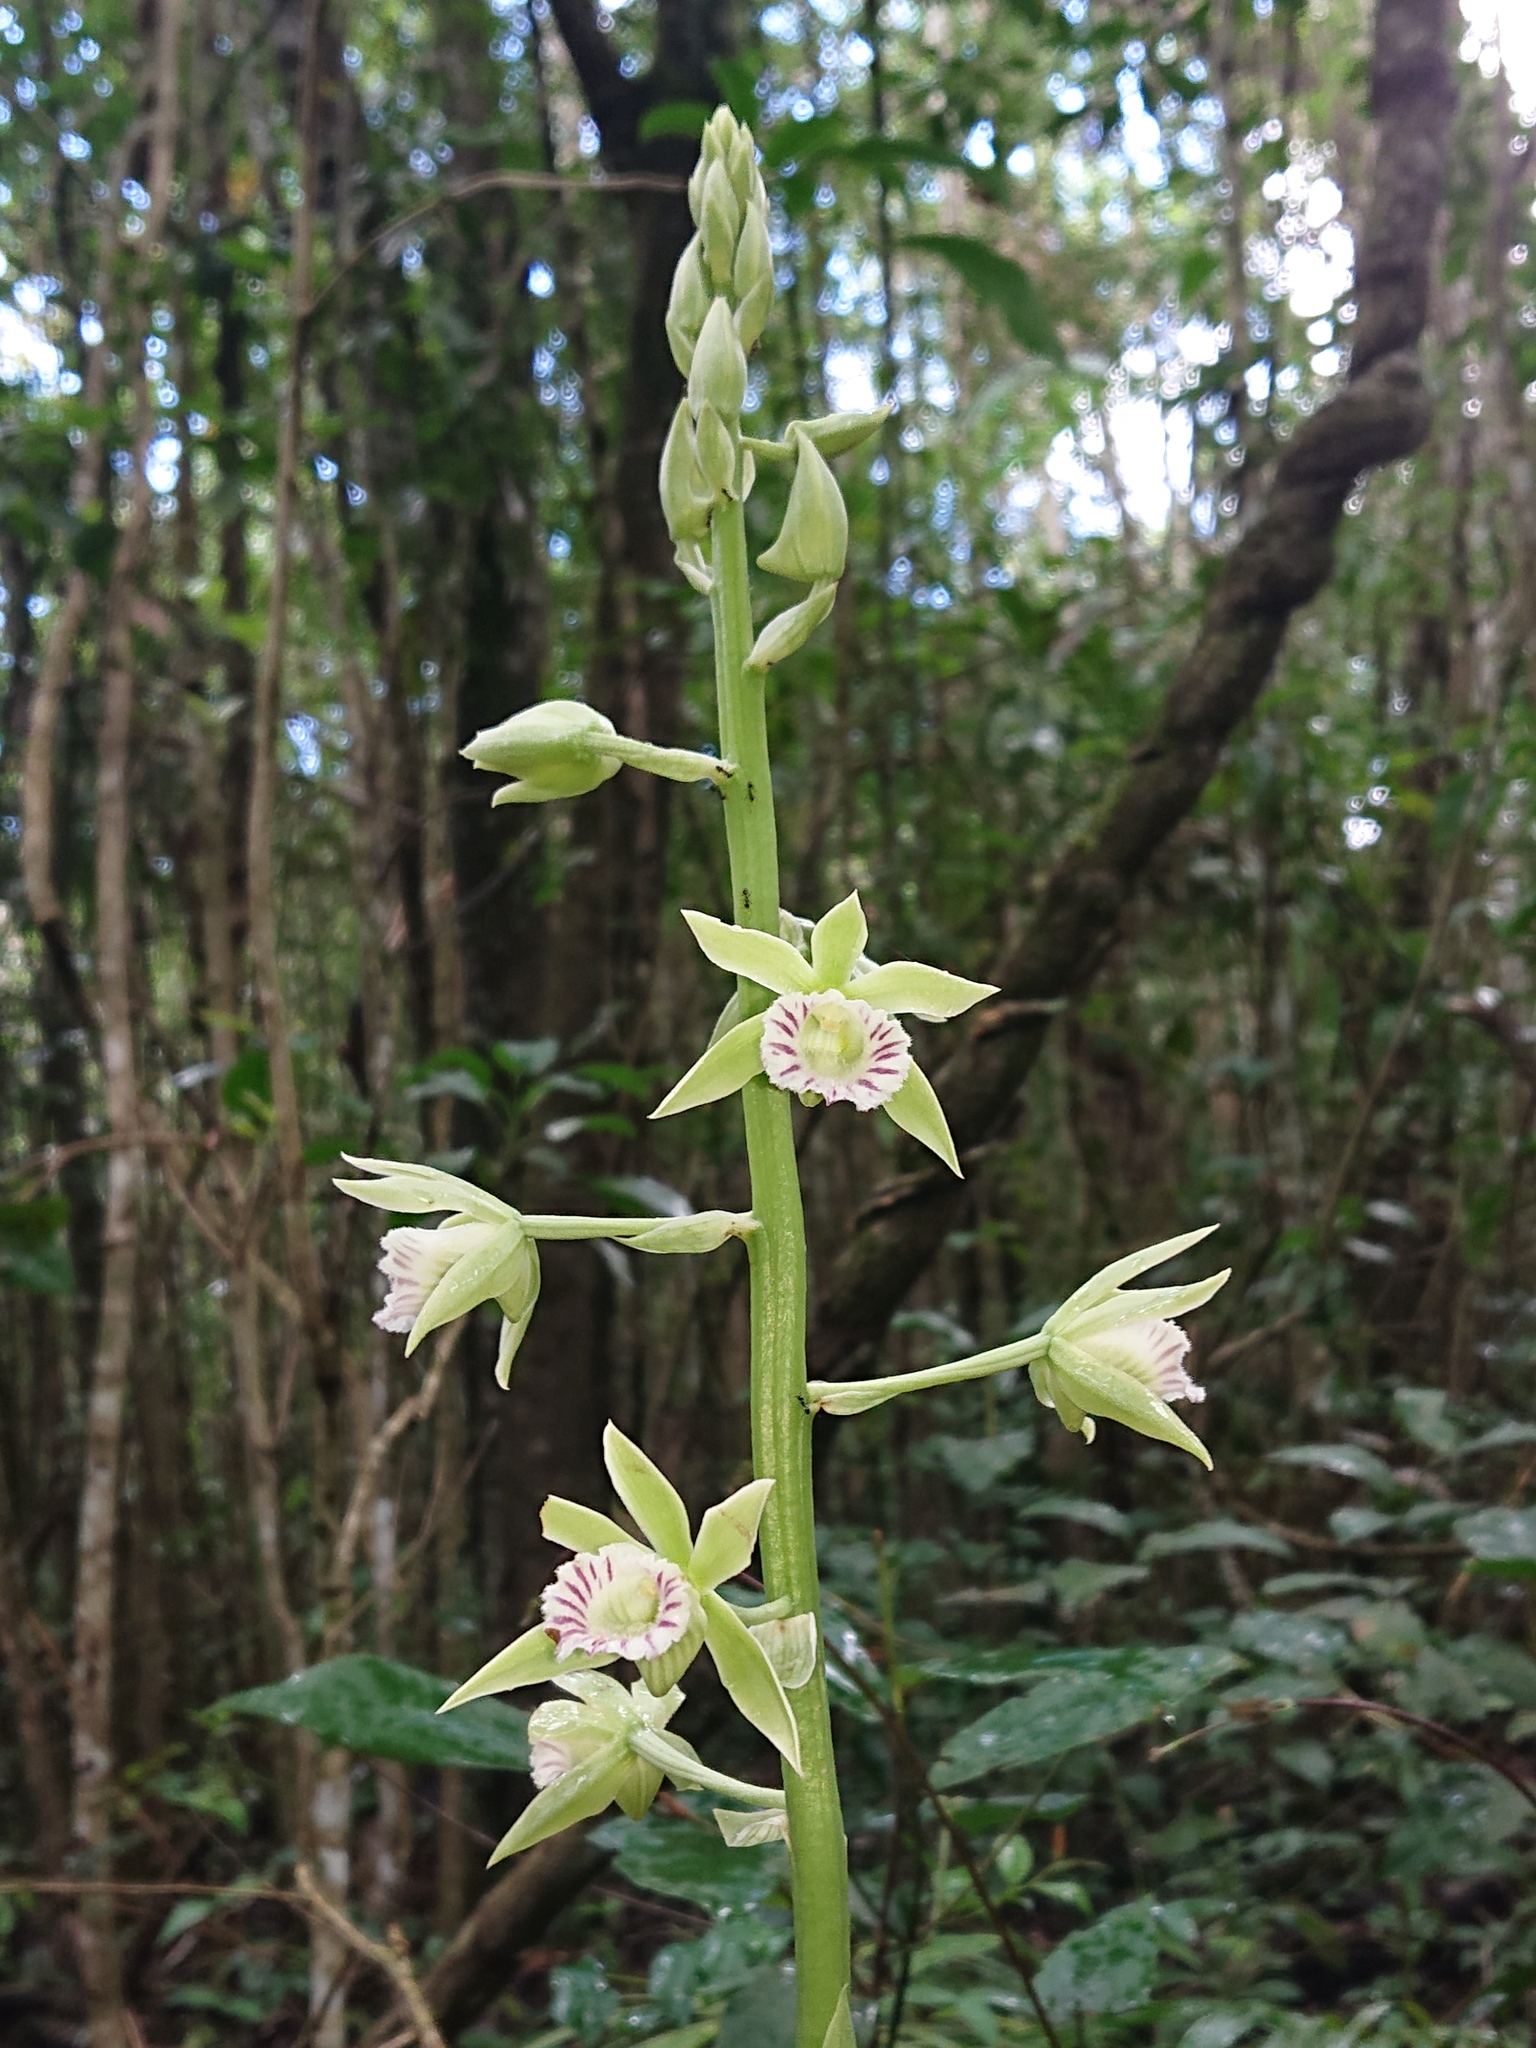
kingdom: Plantae
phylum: Tracheophyta
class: Liliopsida
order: Asparagales
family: Orchidaceae
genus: Galeandra
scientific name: Galeandra beyrichii
